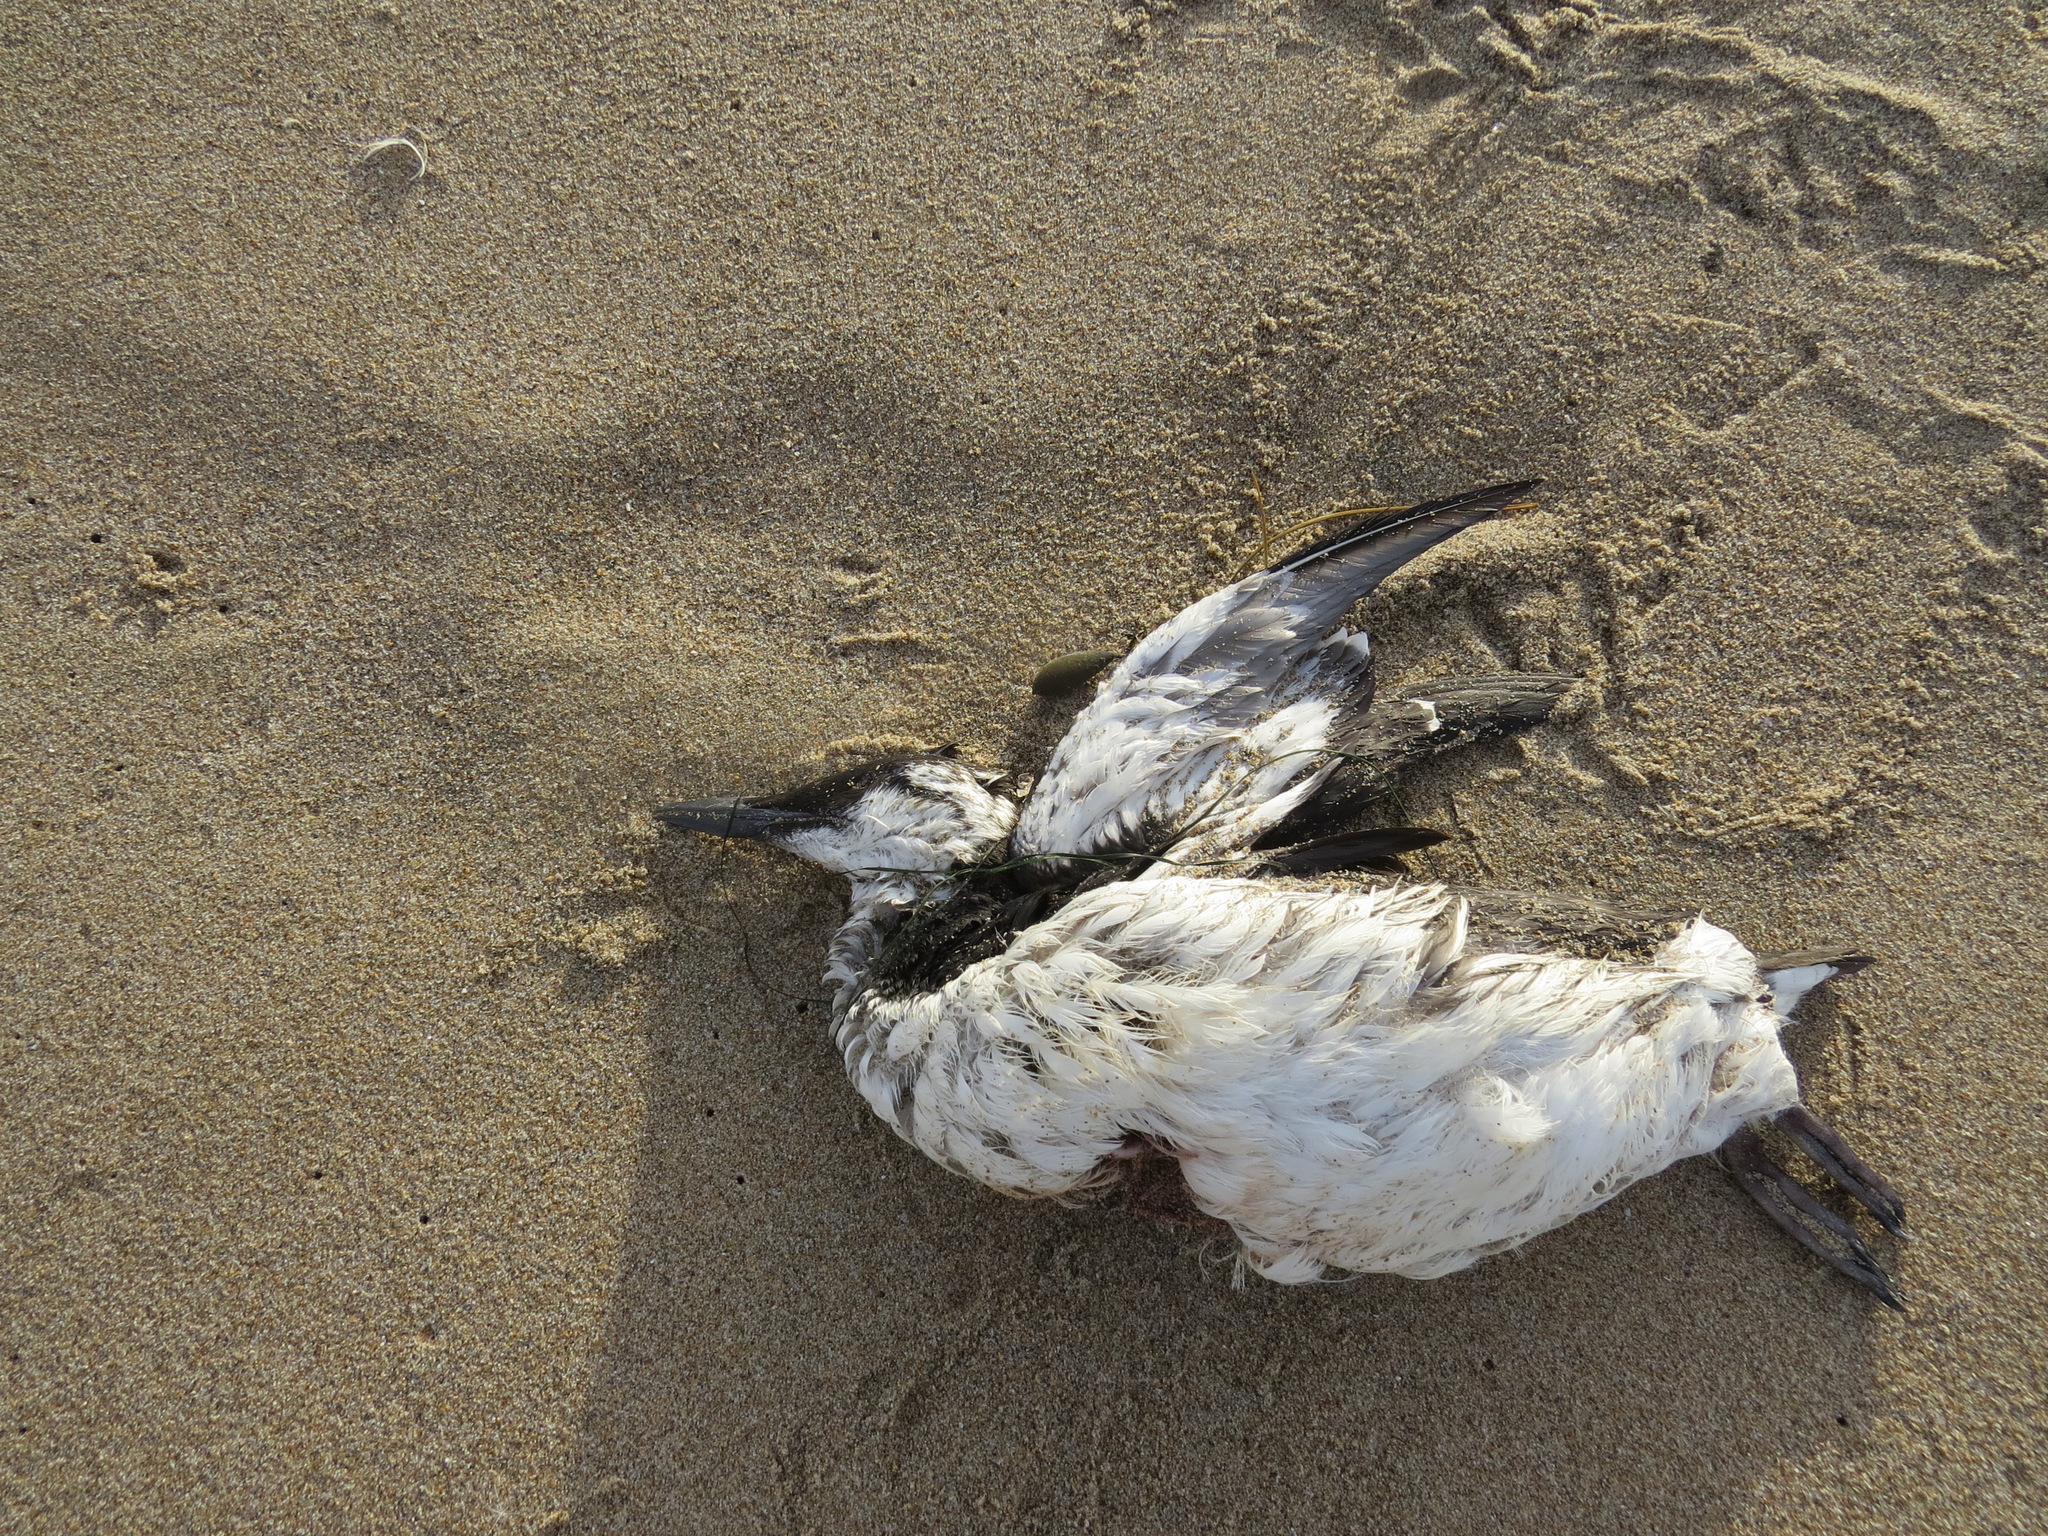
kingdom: Animalia
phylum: Chordata
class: Aves
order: Charadriiformes
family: Alcidae
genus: Uria
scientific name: Uria aalge
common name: Common murre
